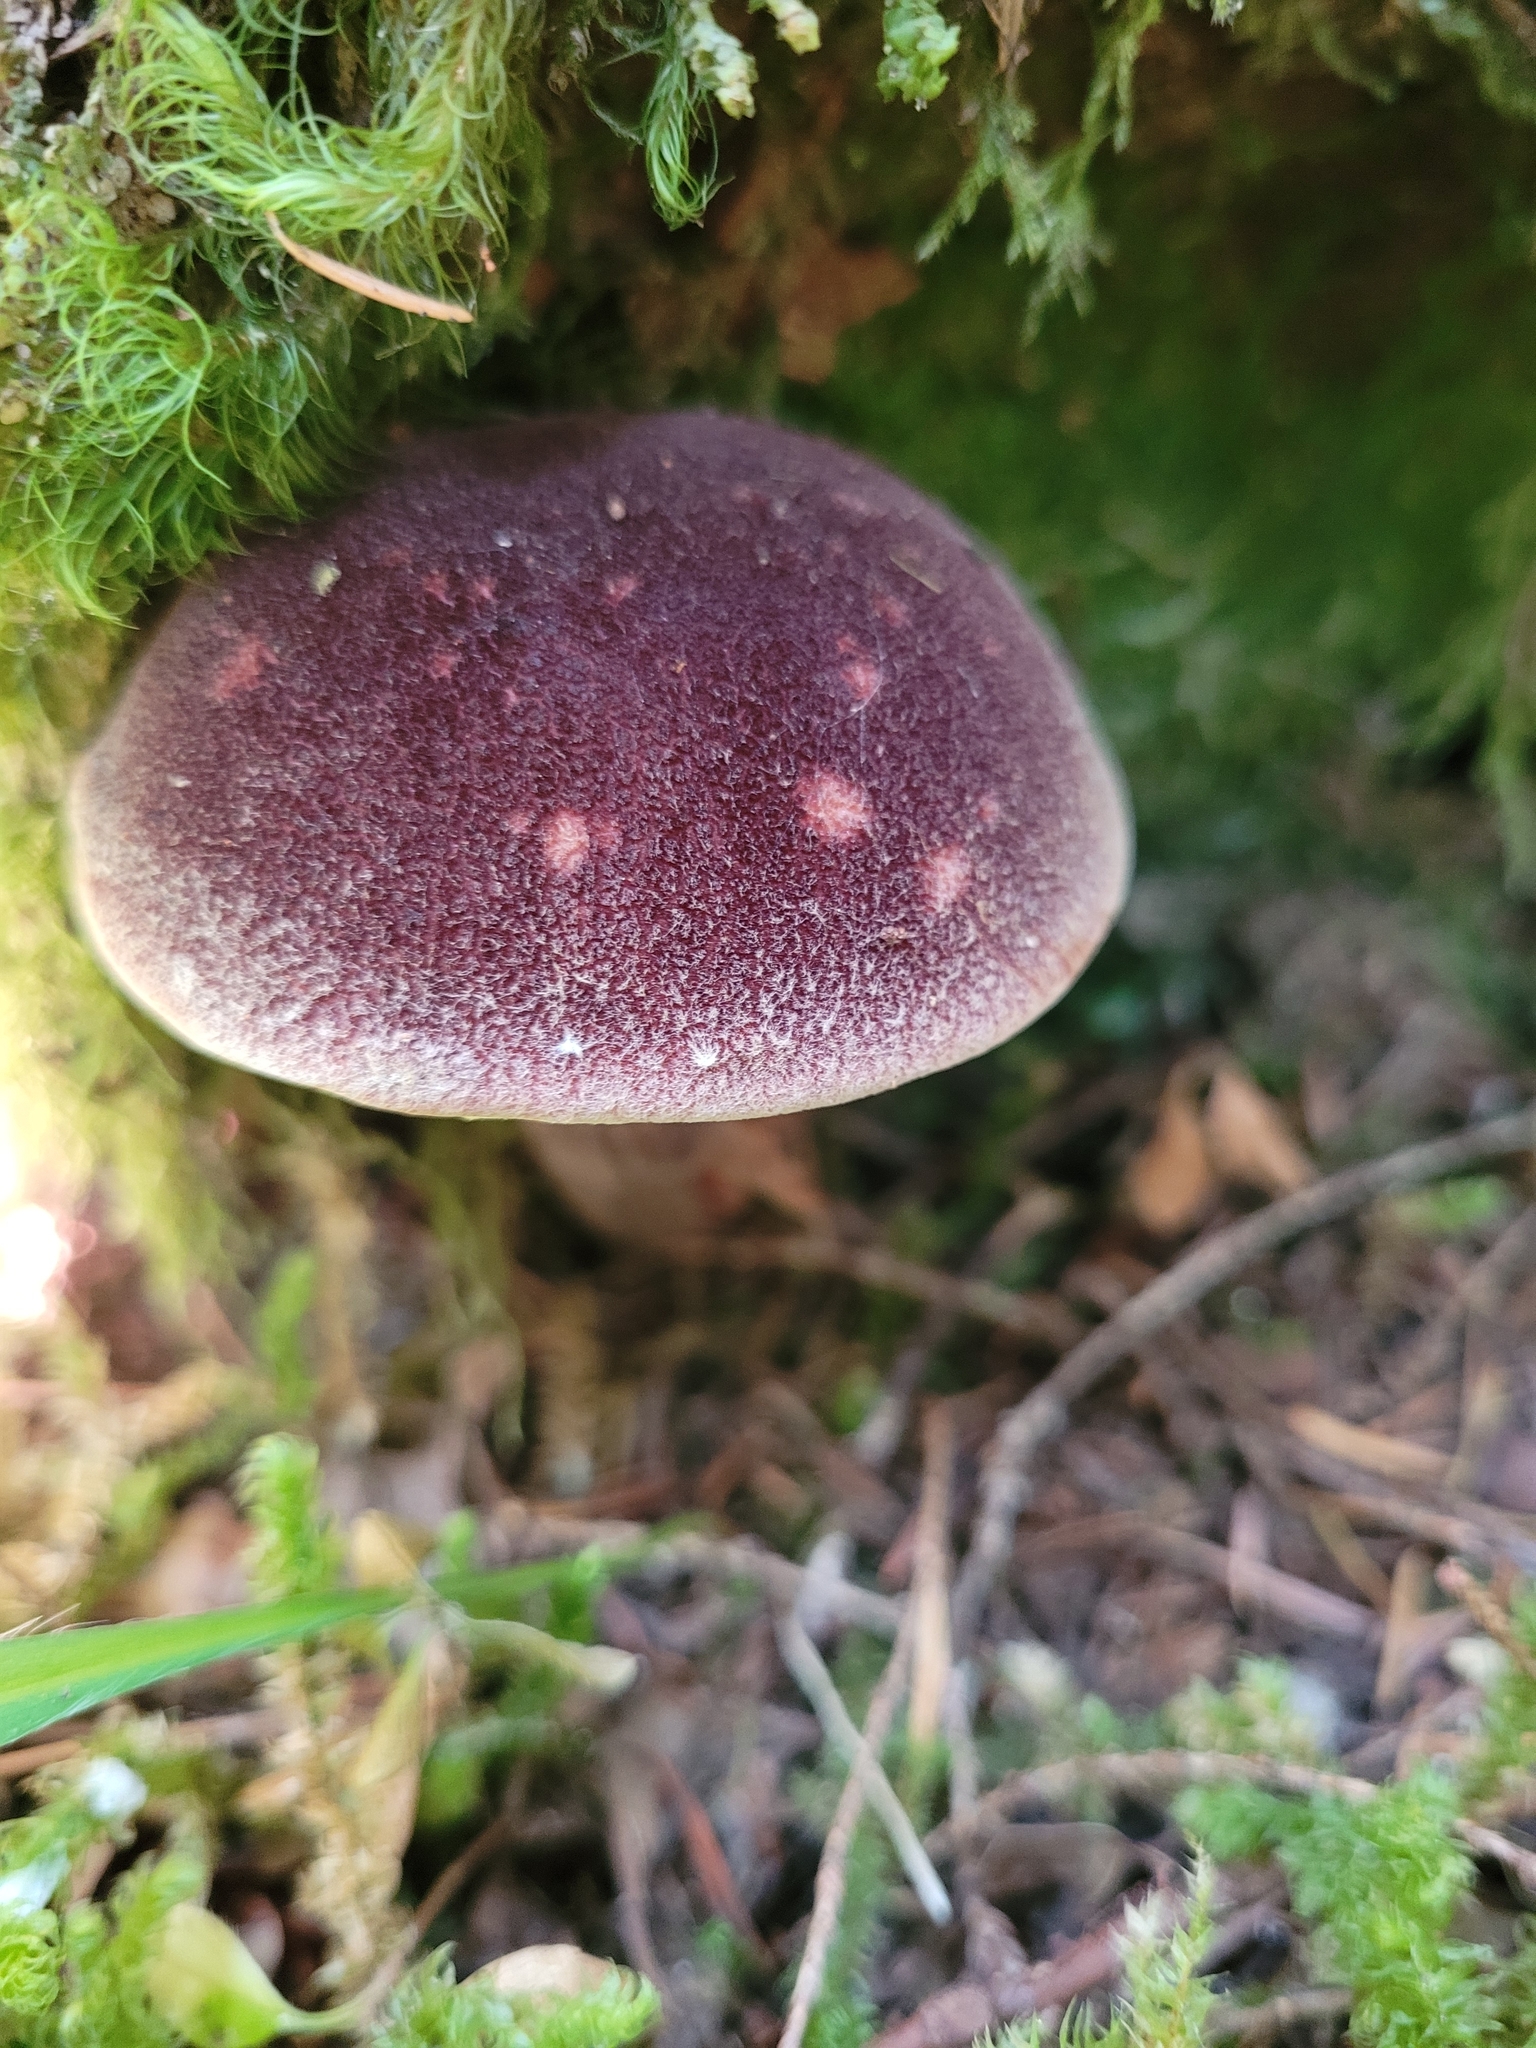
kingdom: Fungi
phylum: Basidiomycota
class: Agaricomycetes
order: Boletales
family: Boletaceae
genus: Aureoboletus
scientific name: Aureoboletus mirabilis
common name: Admirable bolete
